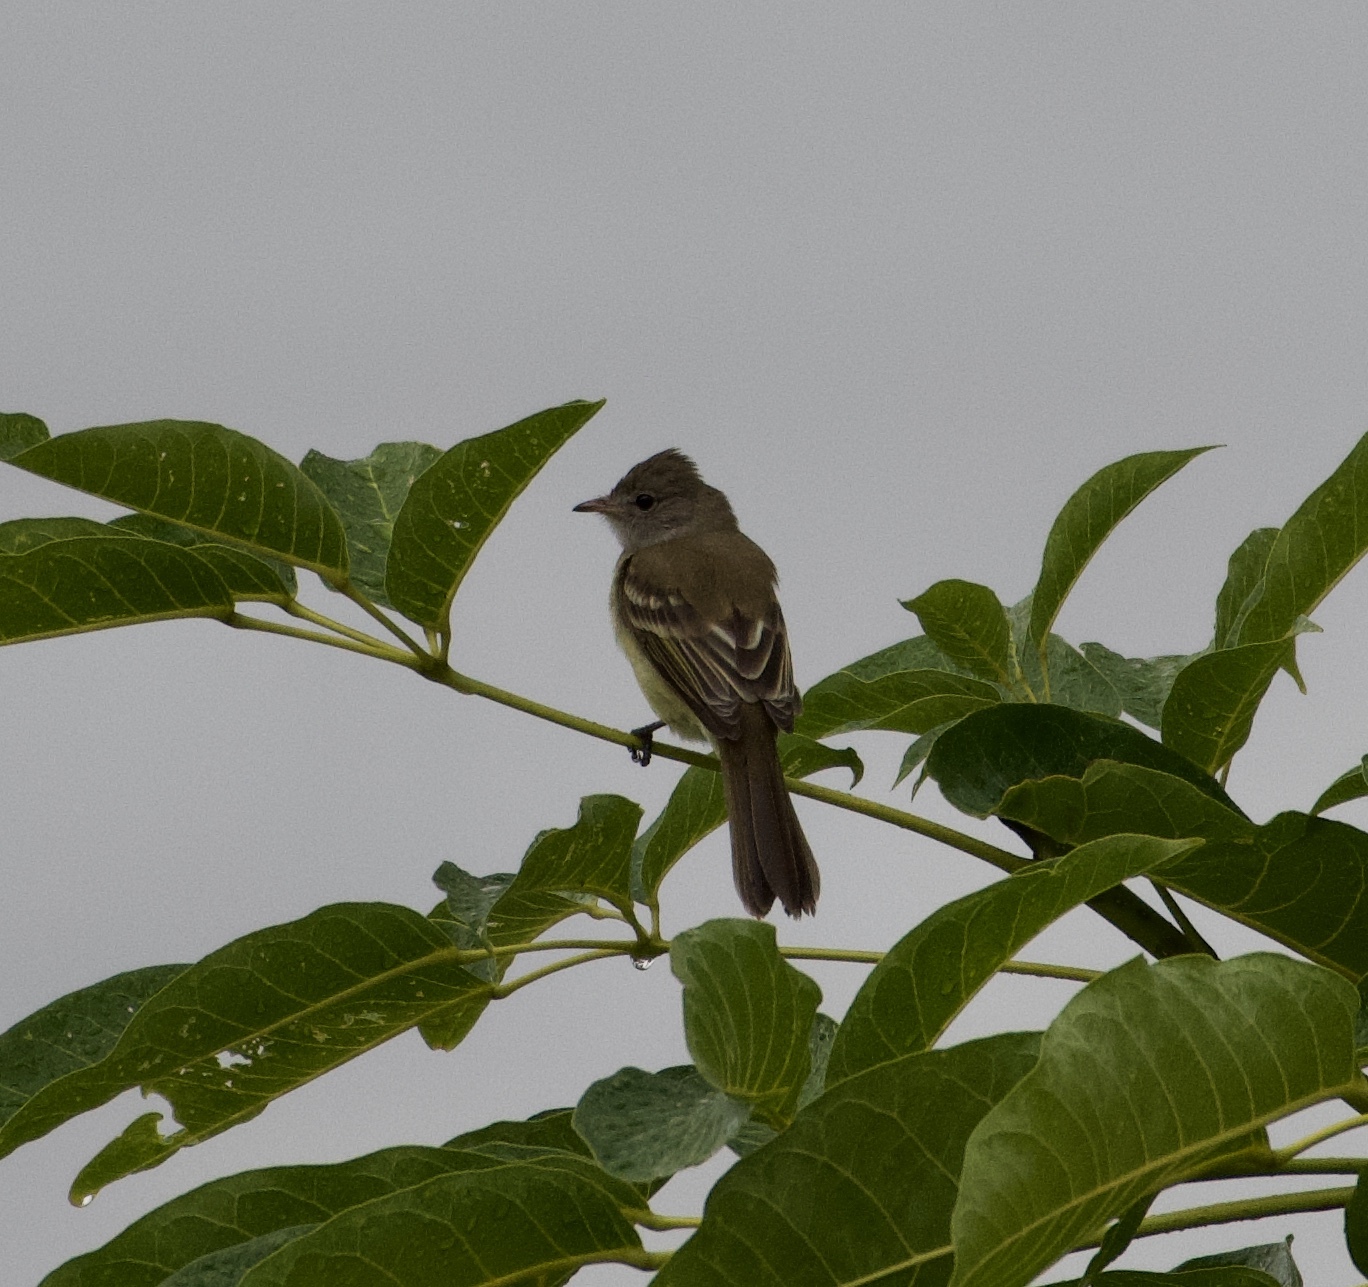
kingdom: Animalia
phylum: Chordata
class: Aves
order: Passeriformes
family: Tyrannidae
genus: Elaenia
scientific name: Elaenia flavogaster
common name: Yellow-bellied elaenia
